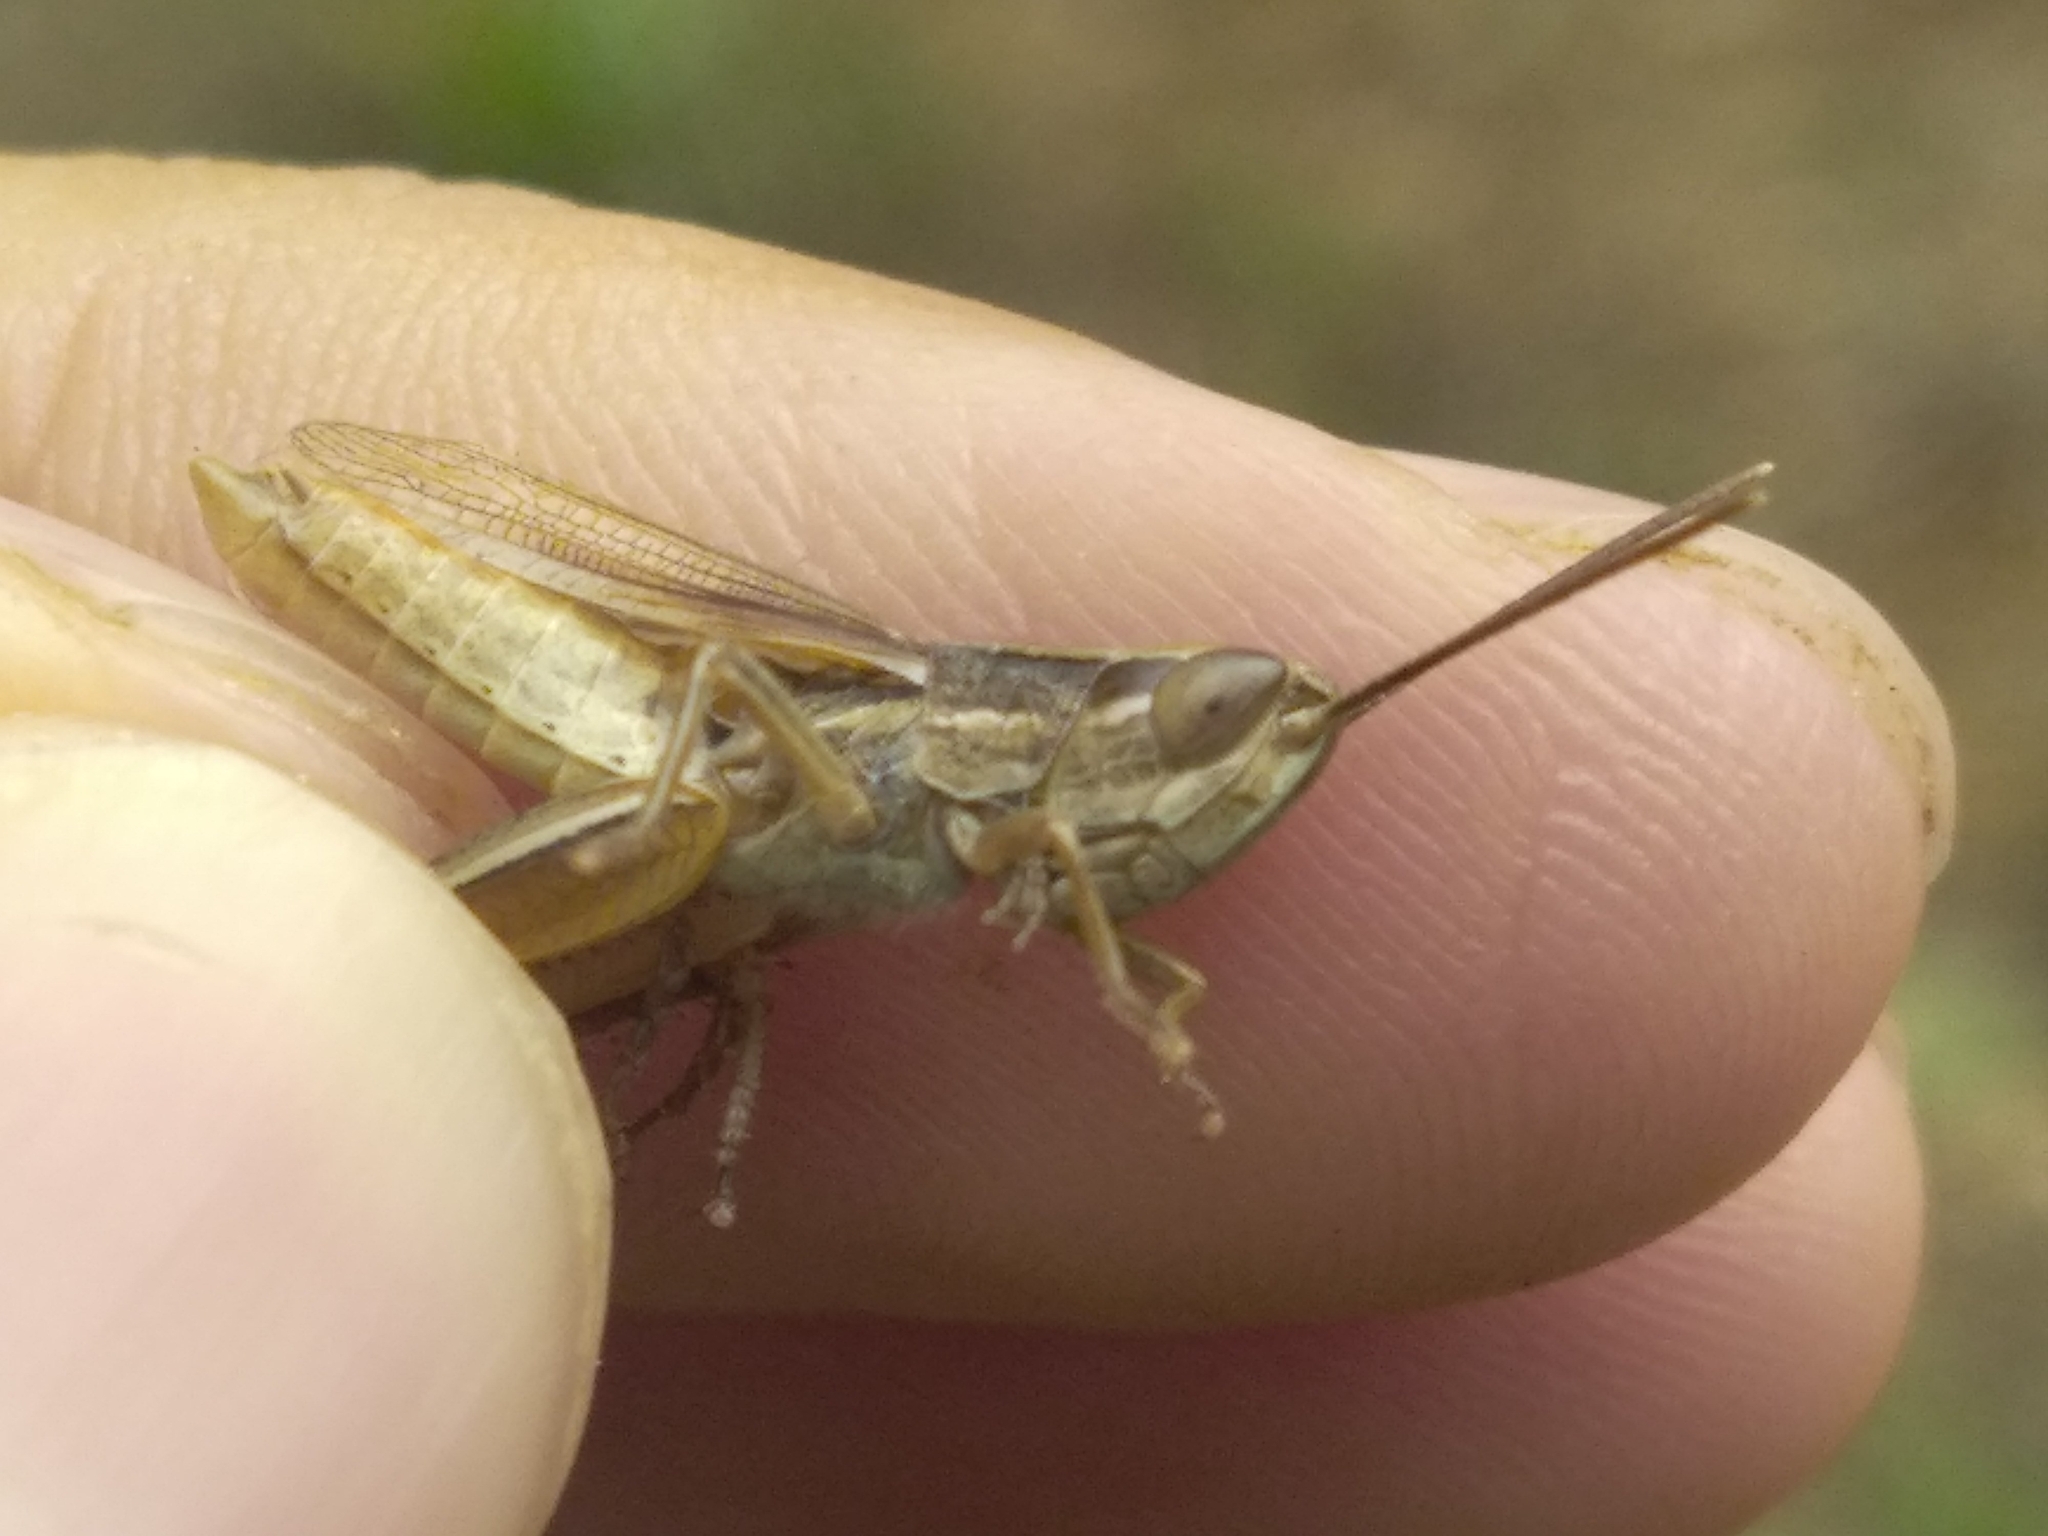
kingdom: Animalia
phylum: Arthropoda
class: Insecta
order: Orthoptera
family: Acrididae
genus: Euchorthippus
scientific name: Euchorthippus elegantulus
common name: Elegant straw grasshopper
